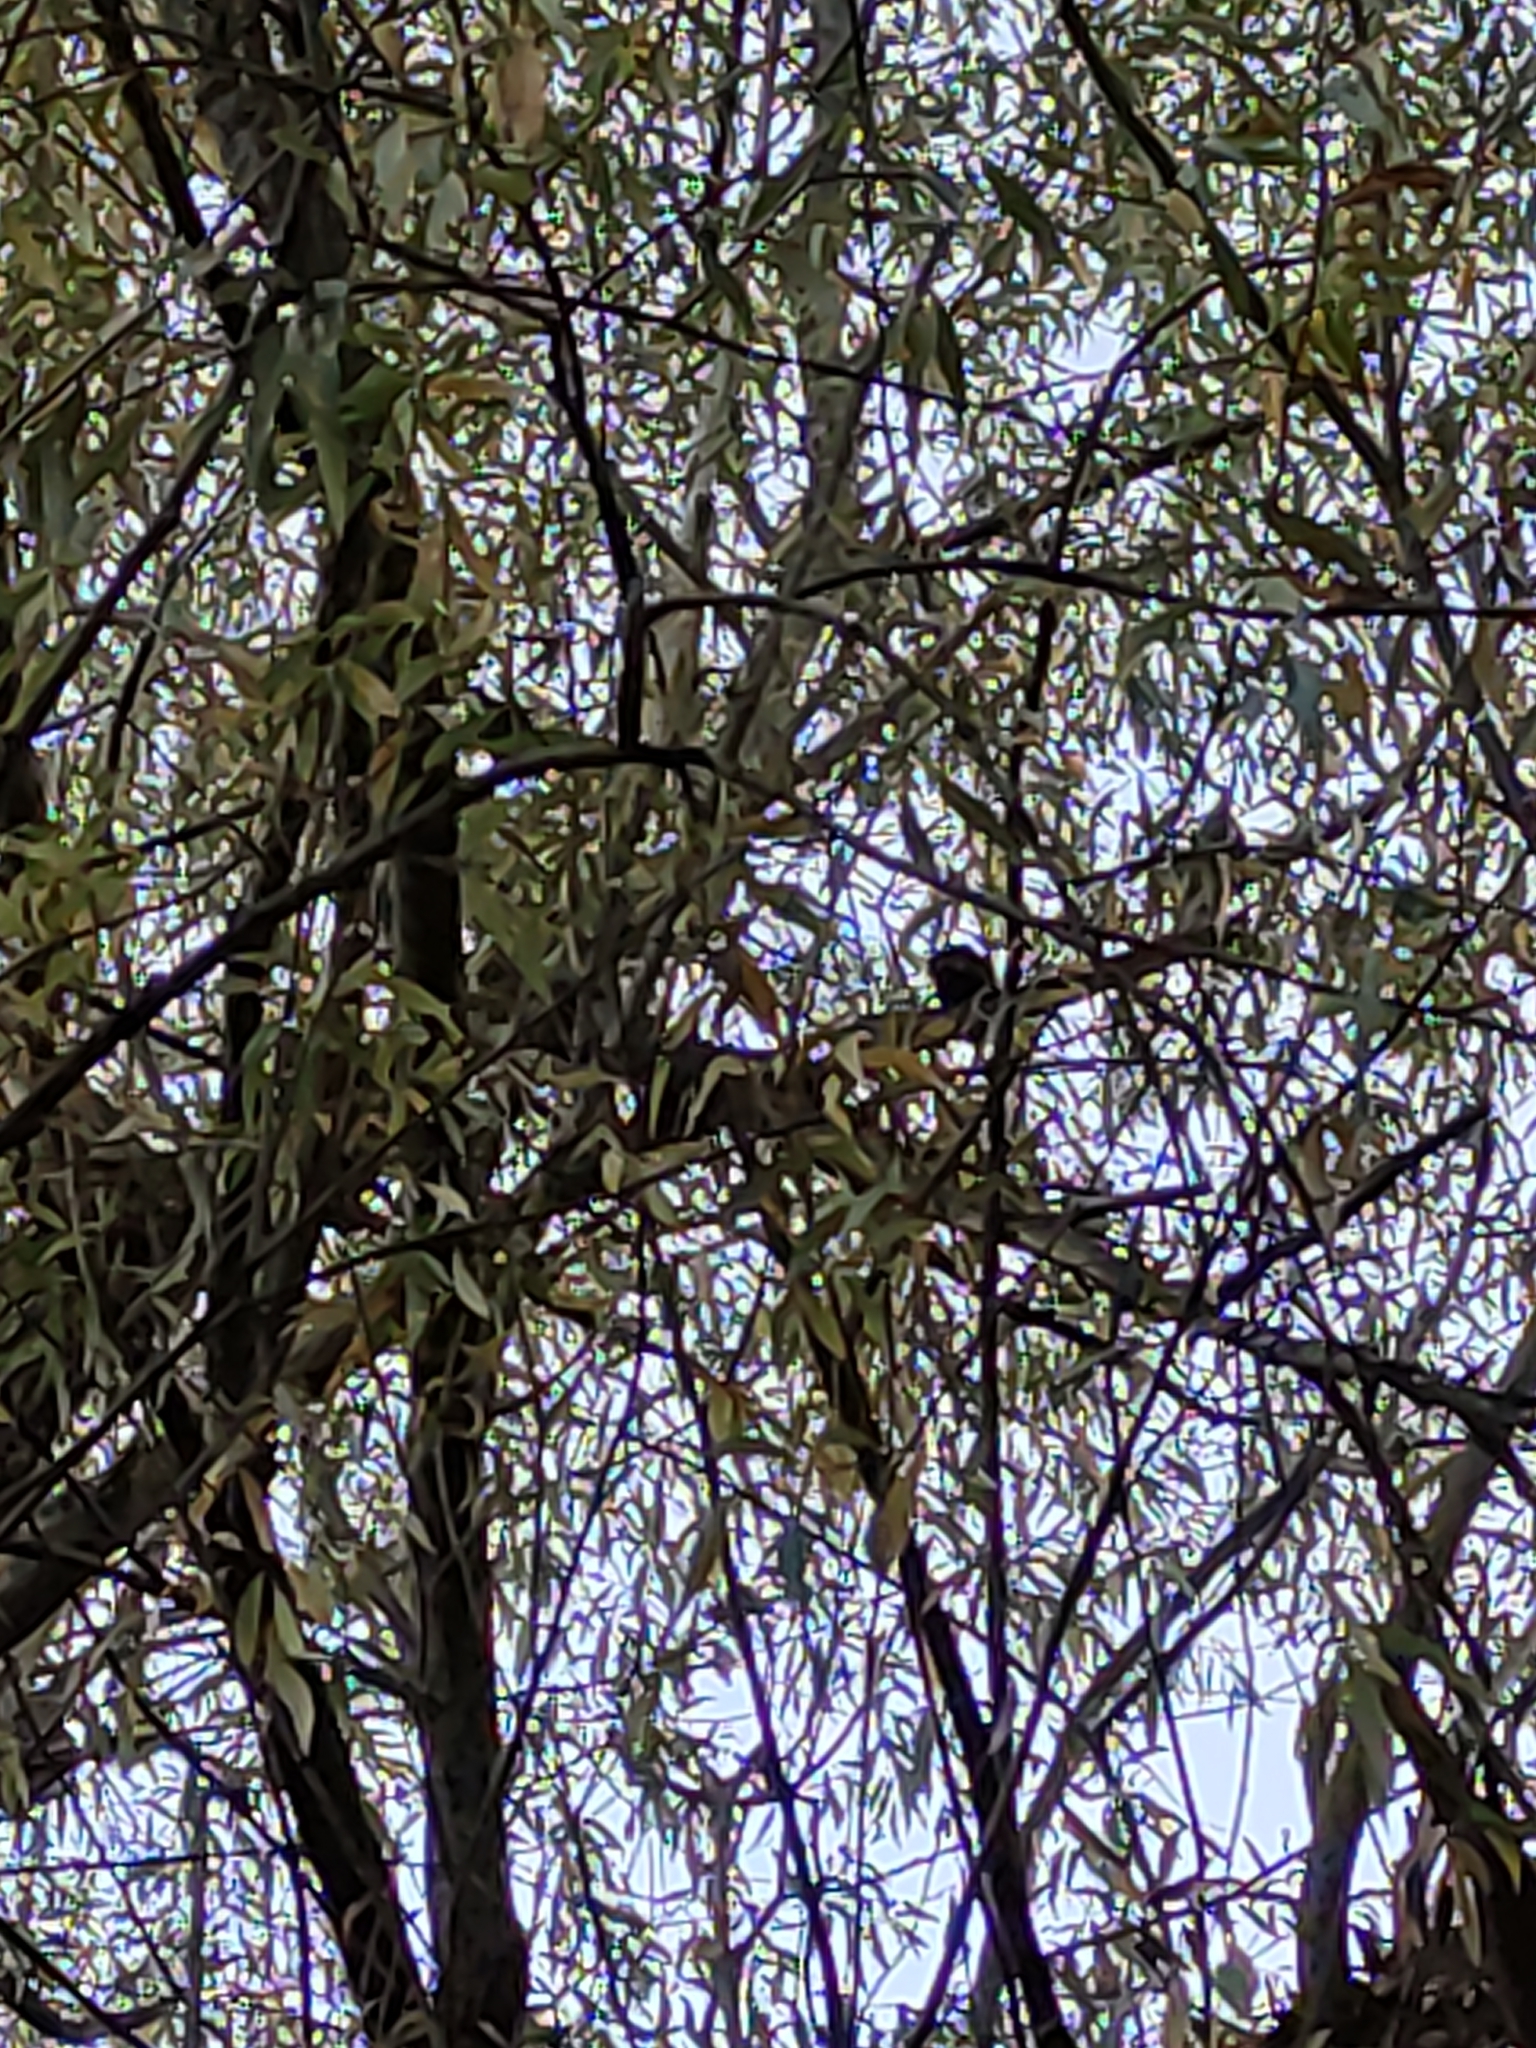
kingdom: Animalia
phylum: Chordata
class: Aves
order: Passeriformes
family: Passeridae
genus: Passer
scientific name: Passer domesticus
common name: House sparrow
